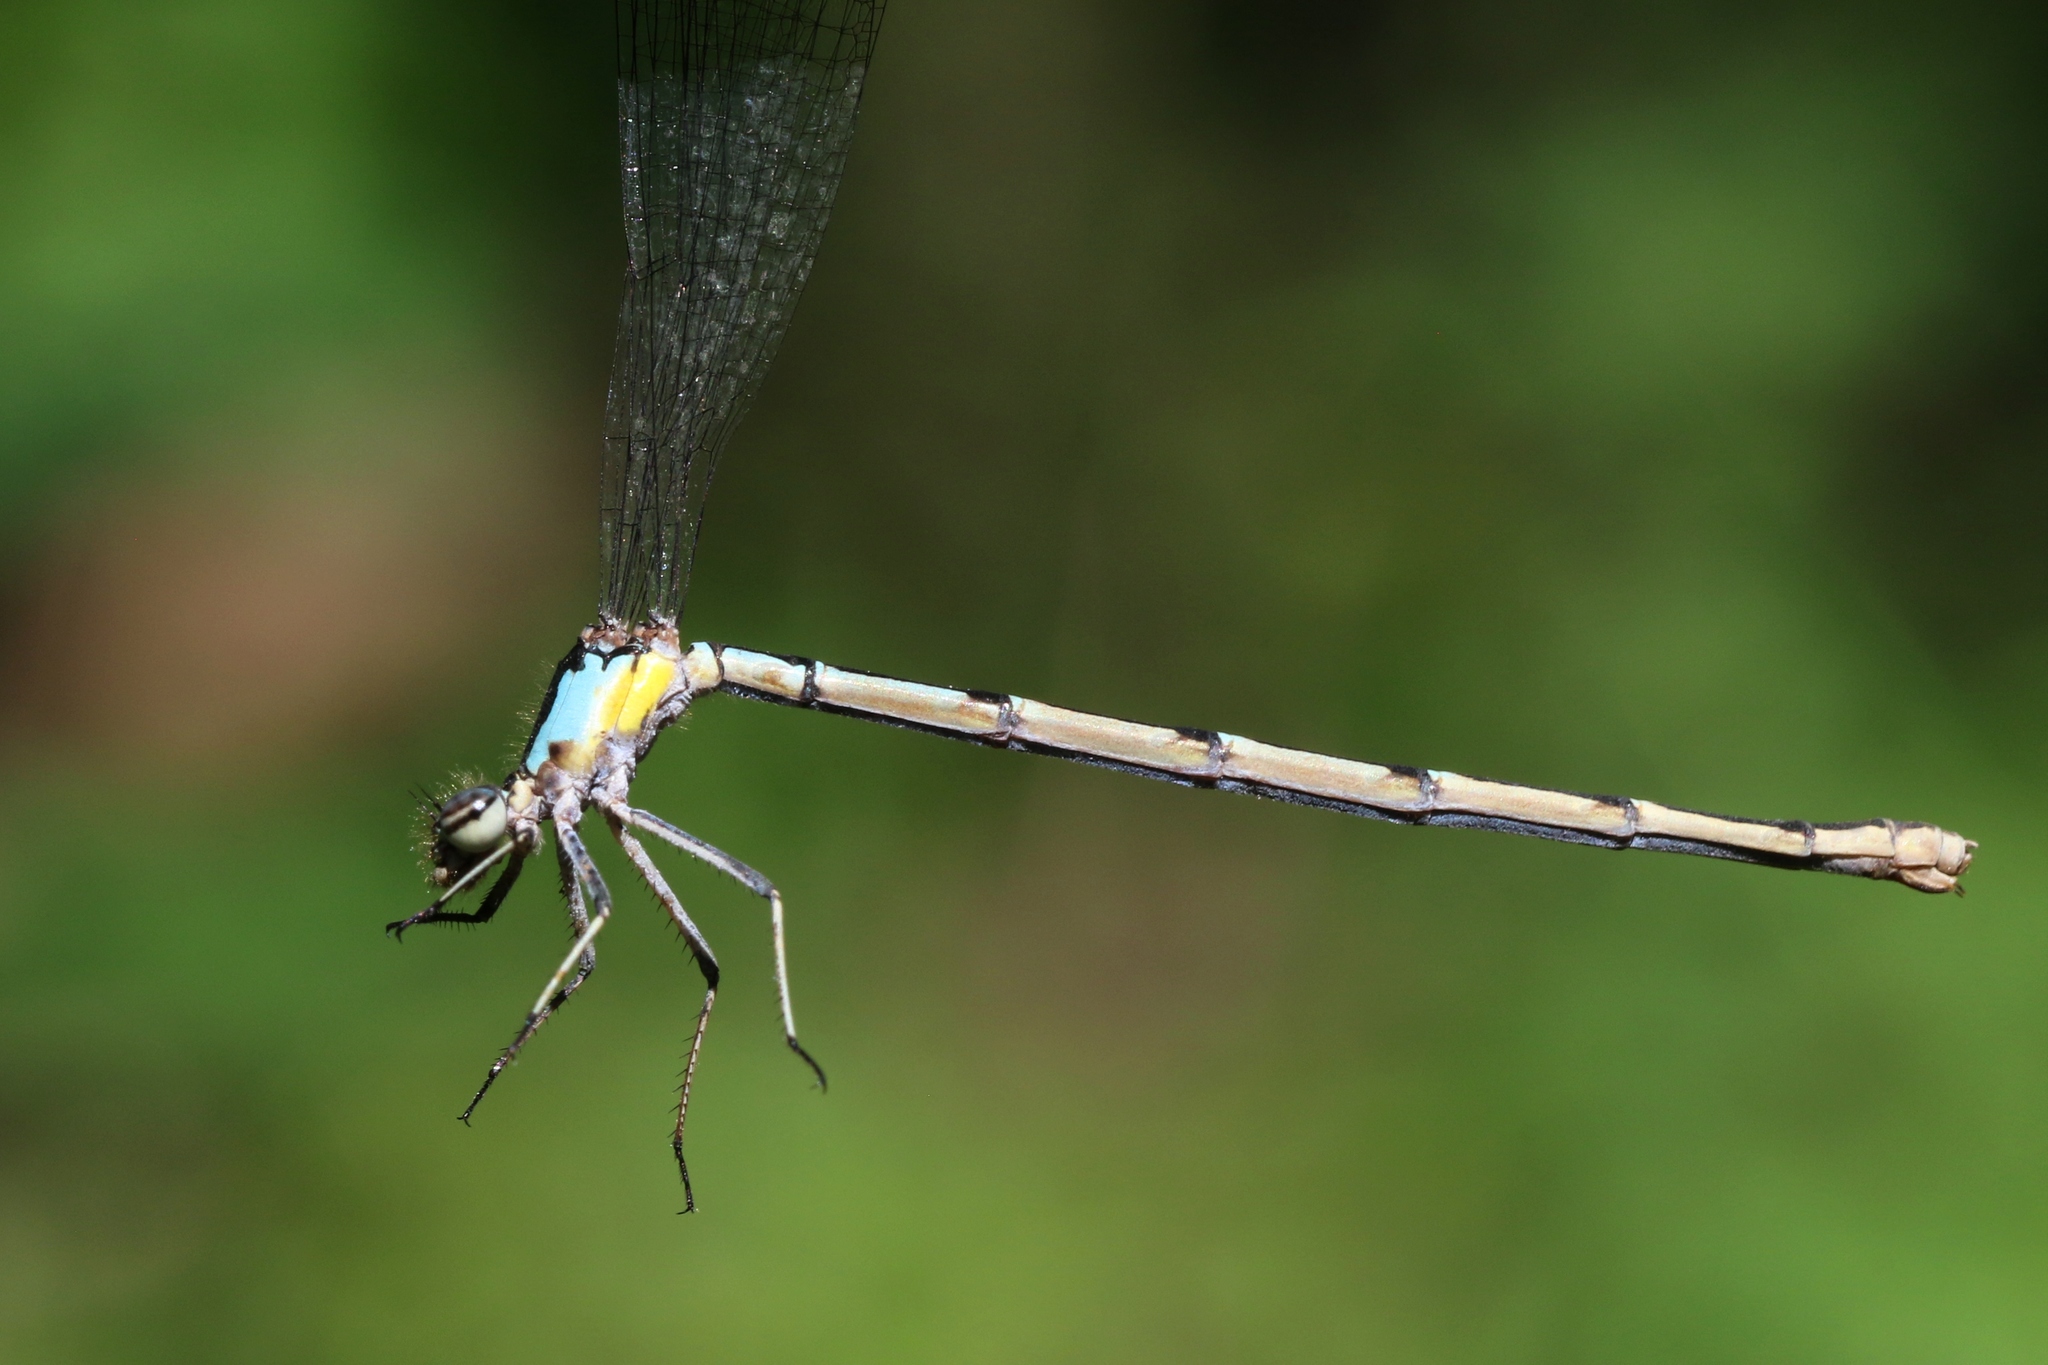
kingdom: Animalia
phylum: Arthropoda
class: Insecta
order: Odonata
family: Coenagrionidae
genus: Chromagrion
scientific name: Chromagrion conditum
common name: Aurora damsel
